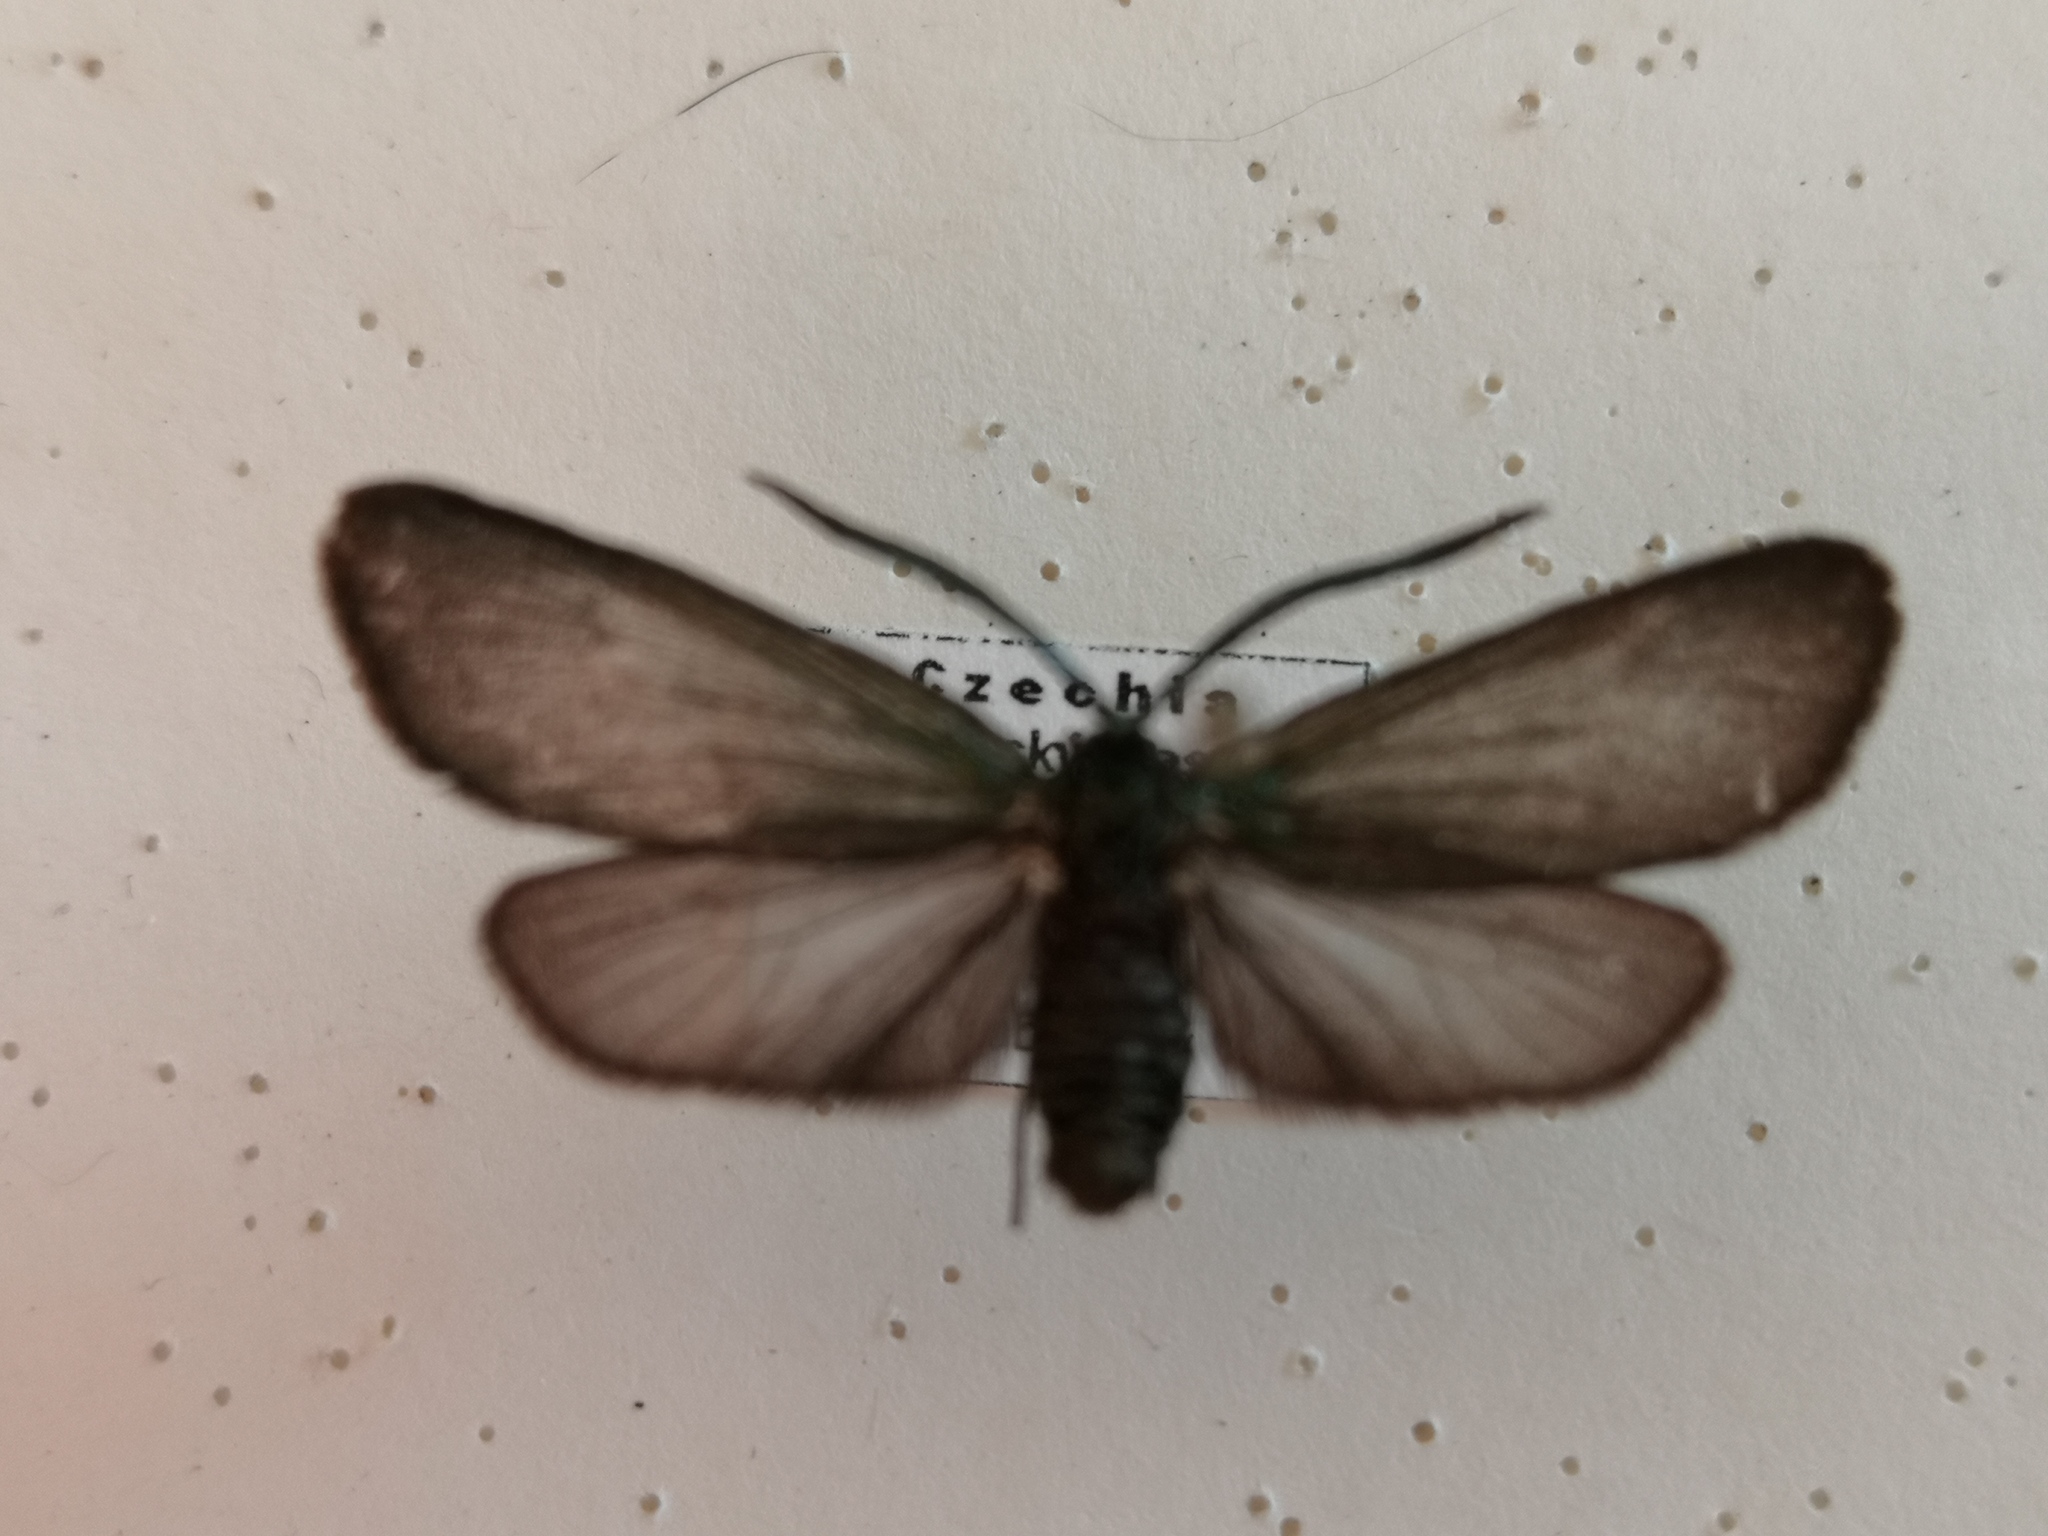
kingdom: Animalia
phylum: Arthropoda
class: Insecta
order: Lepidoptera
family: Zygaenidae
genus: Rhagades
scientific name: Rhagades pruni
